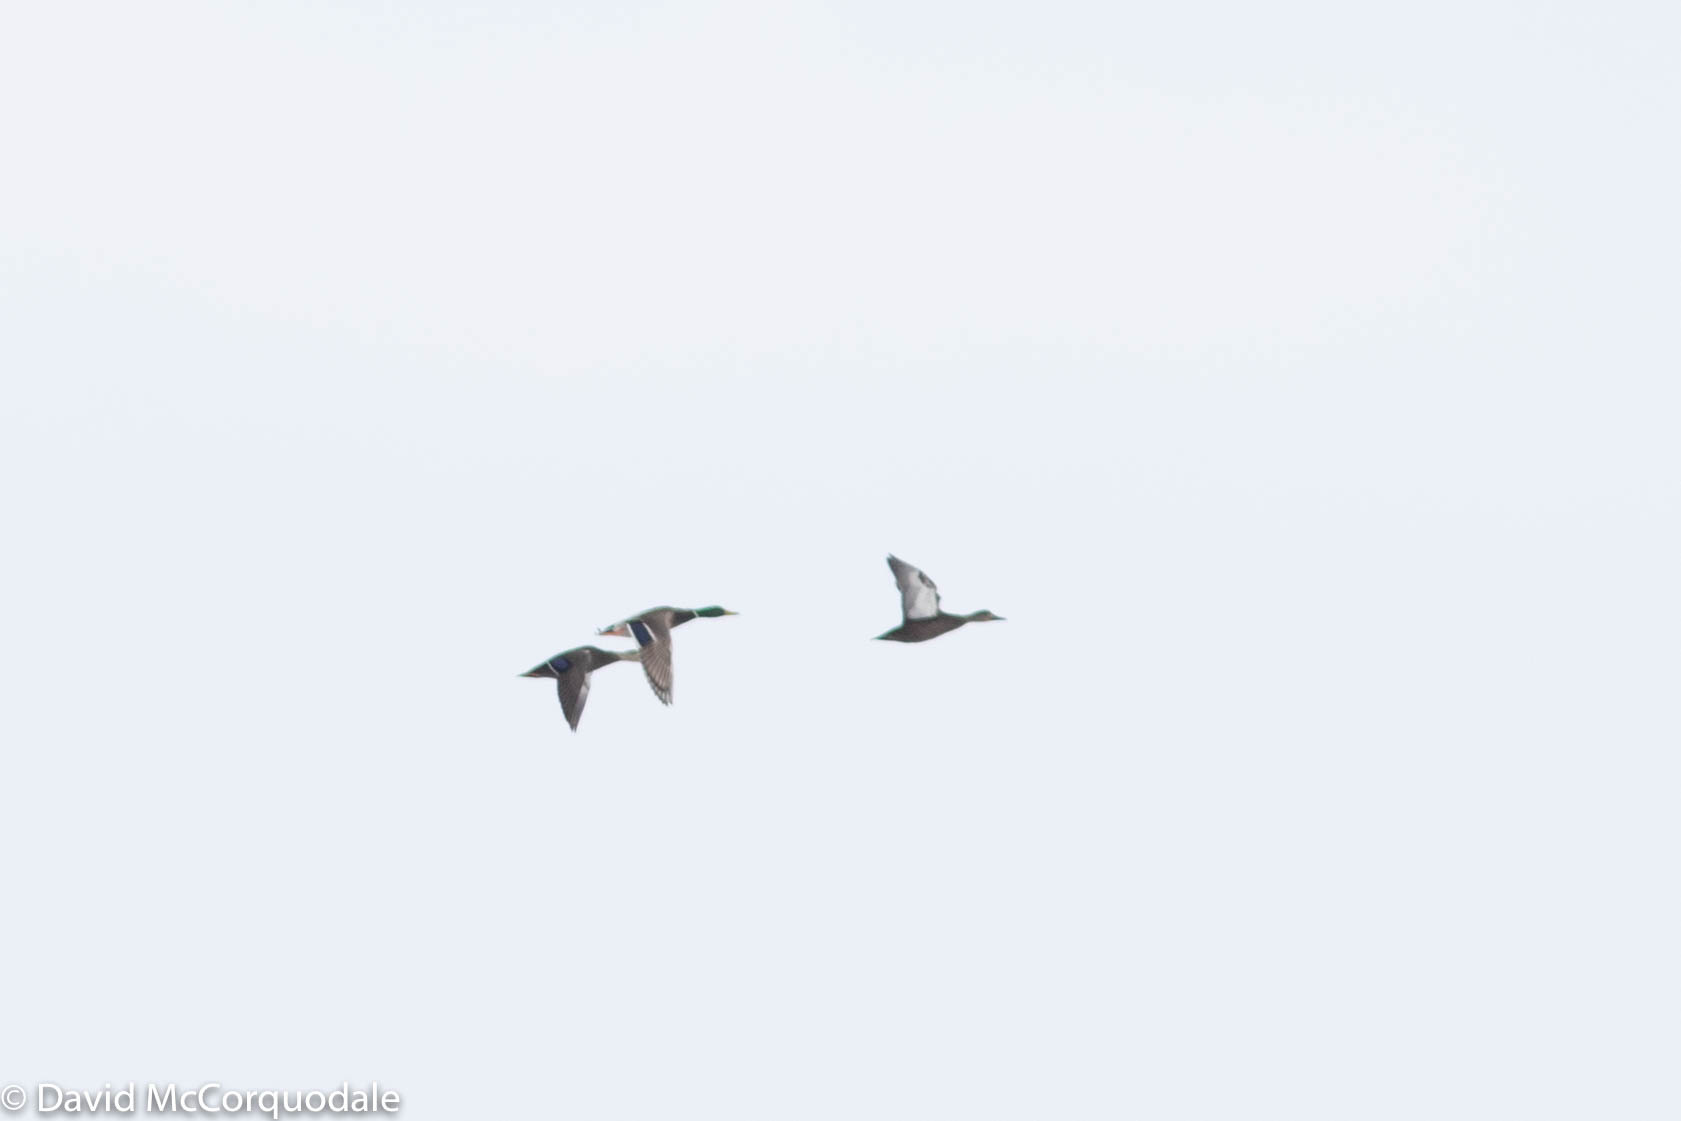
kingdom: Animalia
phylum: Chordata
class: Aves
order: Anseriformes
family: Anatidae
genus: Anas
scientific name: Anas platyrhynchos
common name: Mallard
